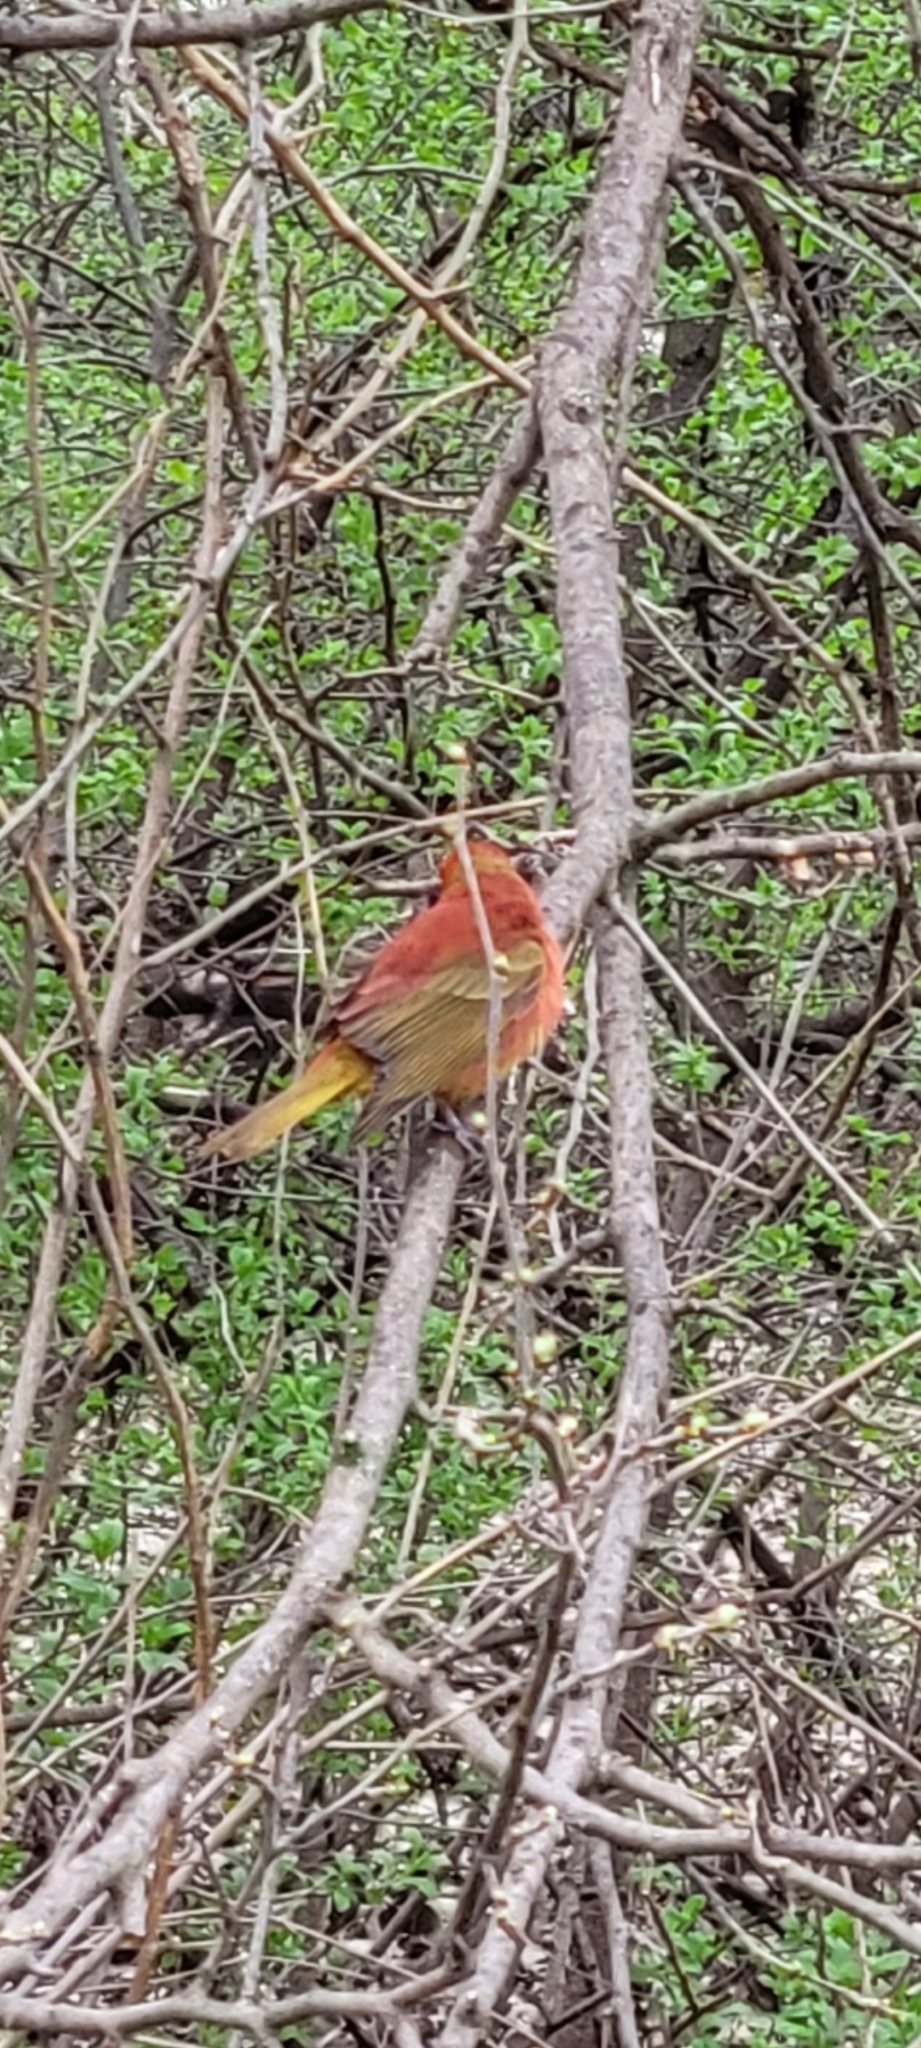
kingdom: Animalia
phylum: Chordata
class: Aves
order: Passeriformes
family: Cardinalidae
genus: Piranga
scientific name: Piranga rubra
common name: Summer tanager
